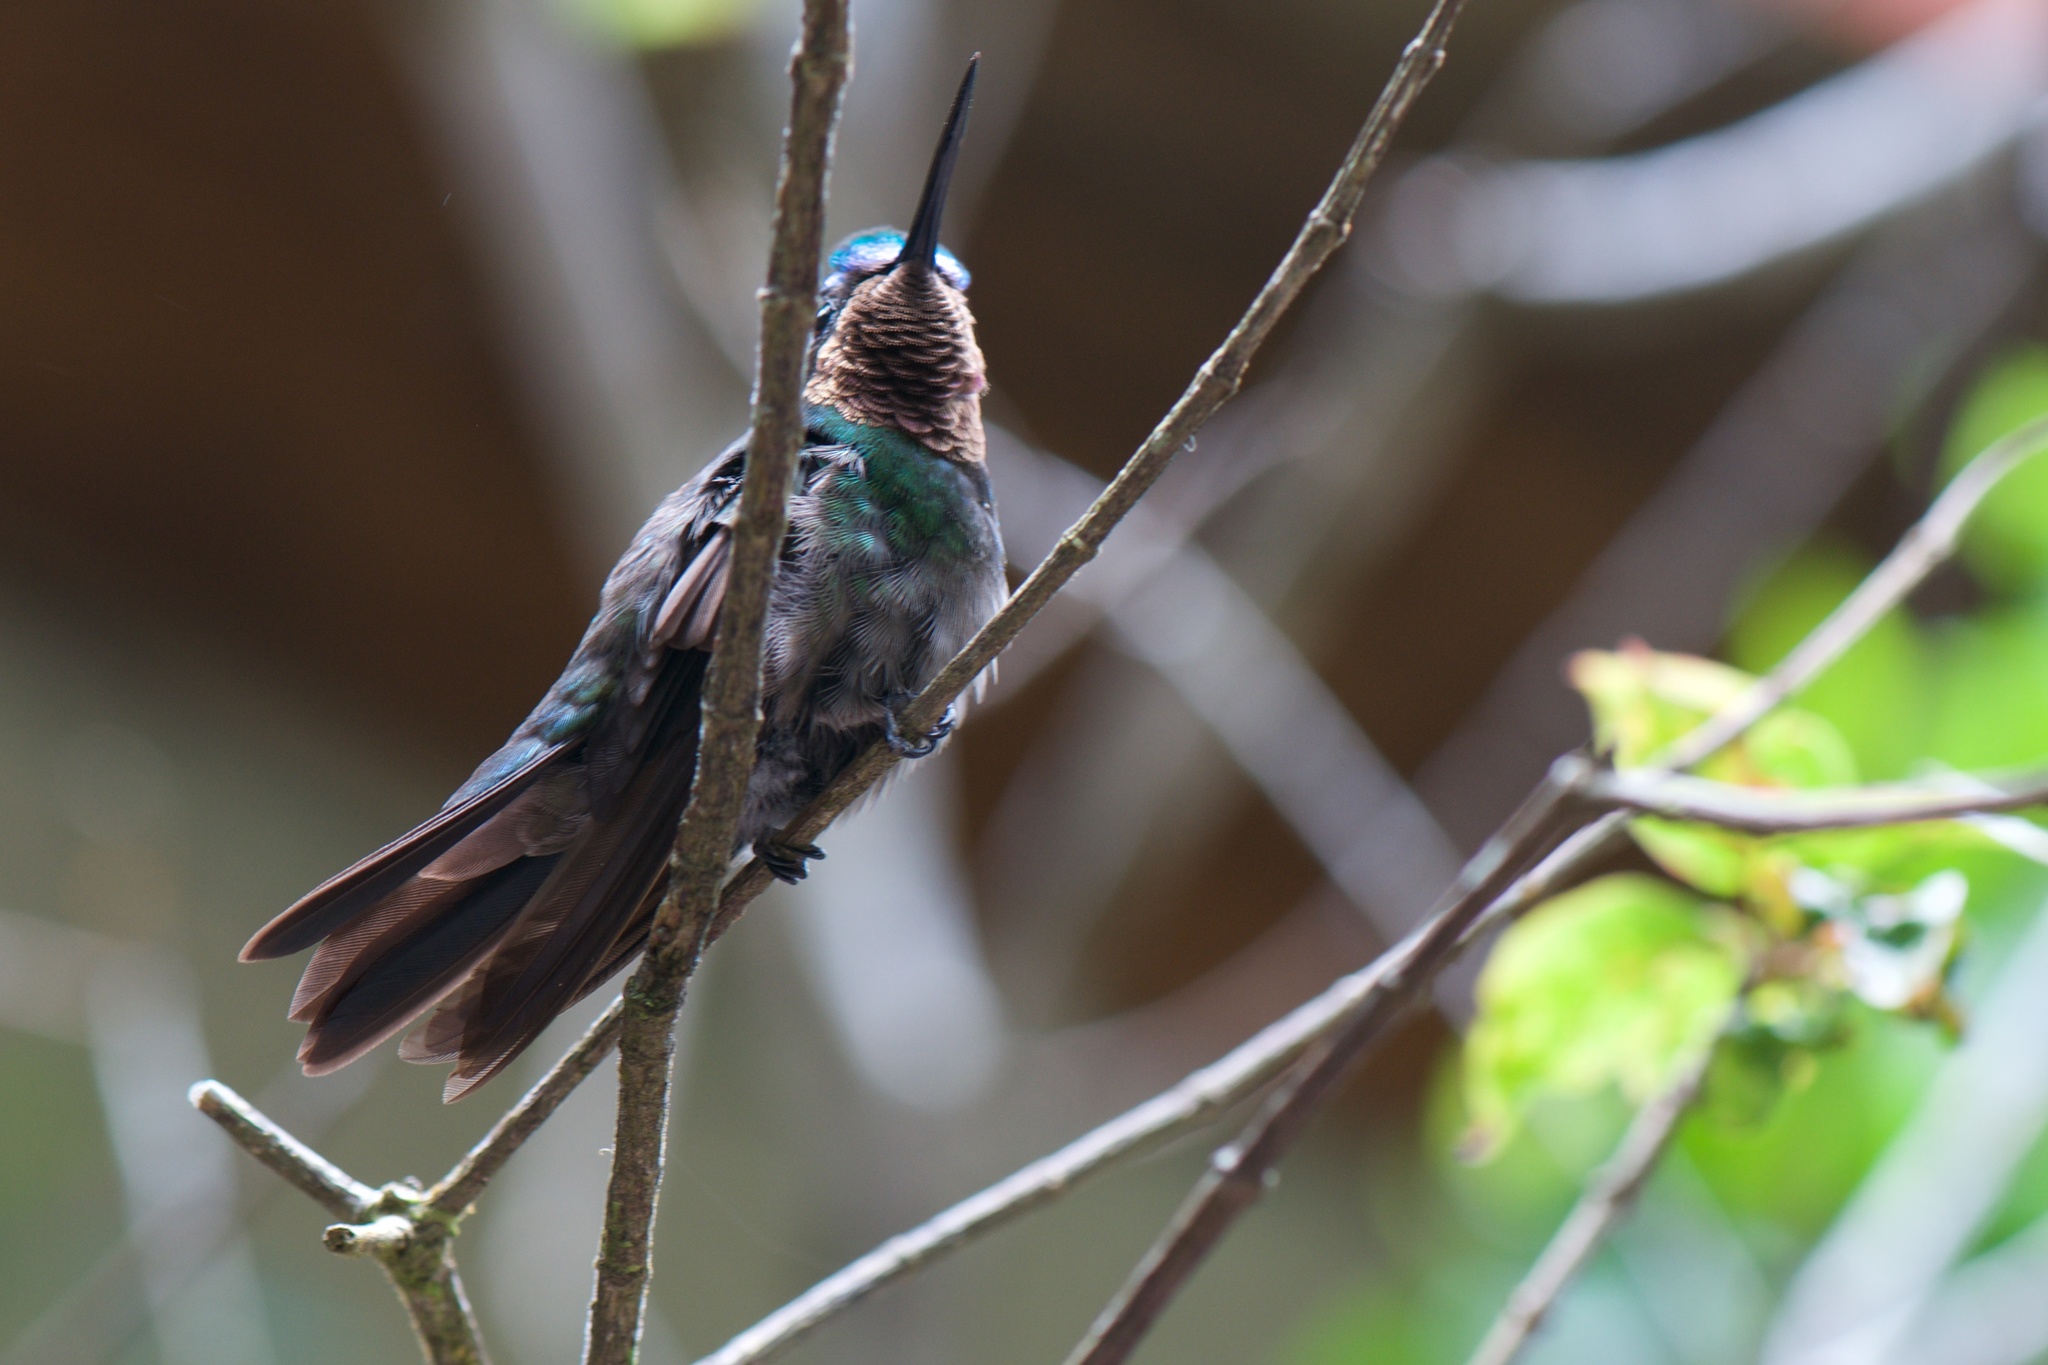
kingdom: Animalia
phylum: Chordata
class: Aves
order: Apodiformes
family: Trochilidae
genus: Lampornis
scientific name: Lampornis calolaemus
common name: Purple-throated mountain-gem
